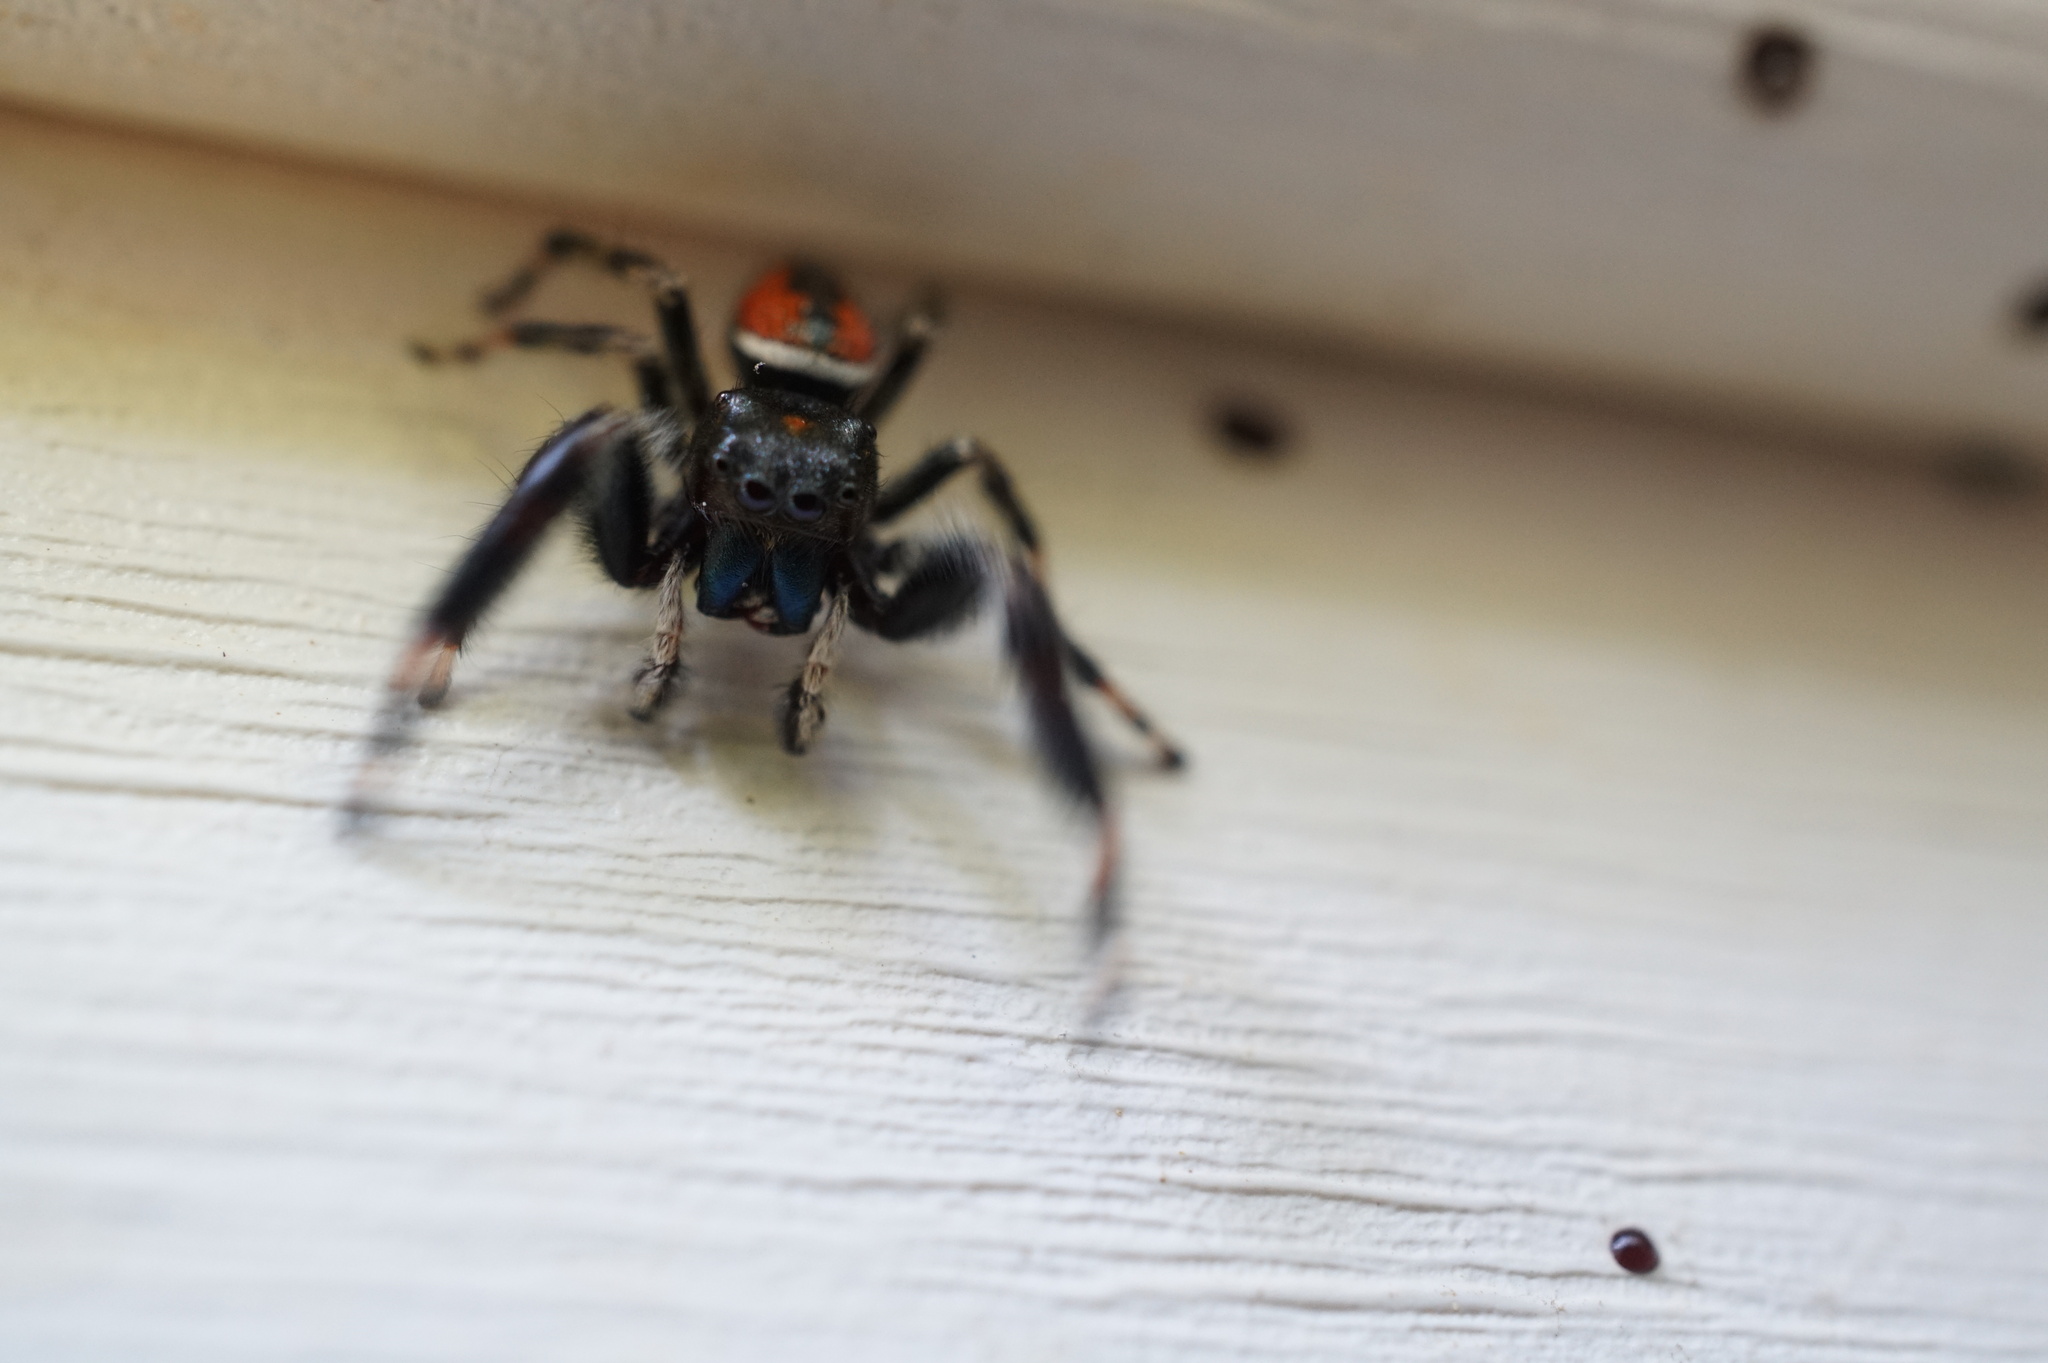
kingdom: Animalia
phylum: Arthropoda
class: Arachnida
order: Araneae
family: Salticidae
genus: Phidippus
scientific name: Phidippus clarus
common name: Brilliant jumping spider
